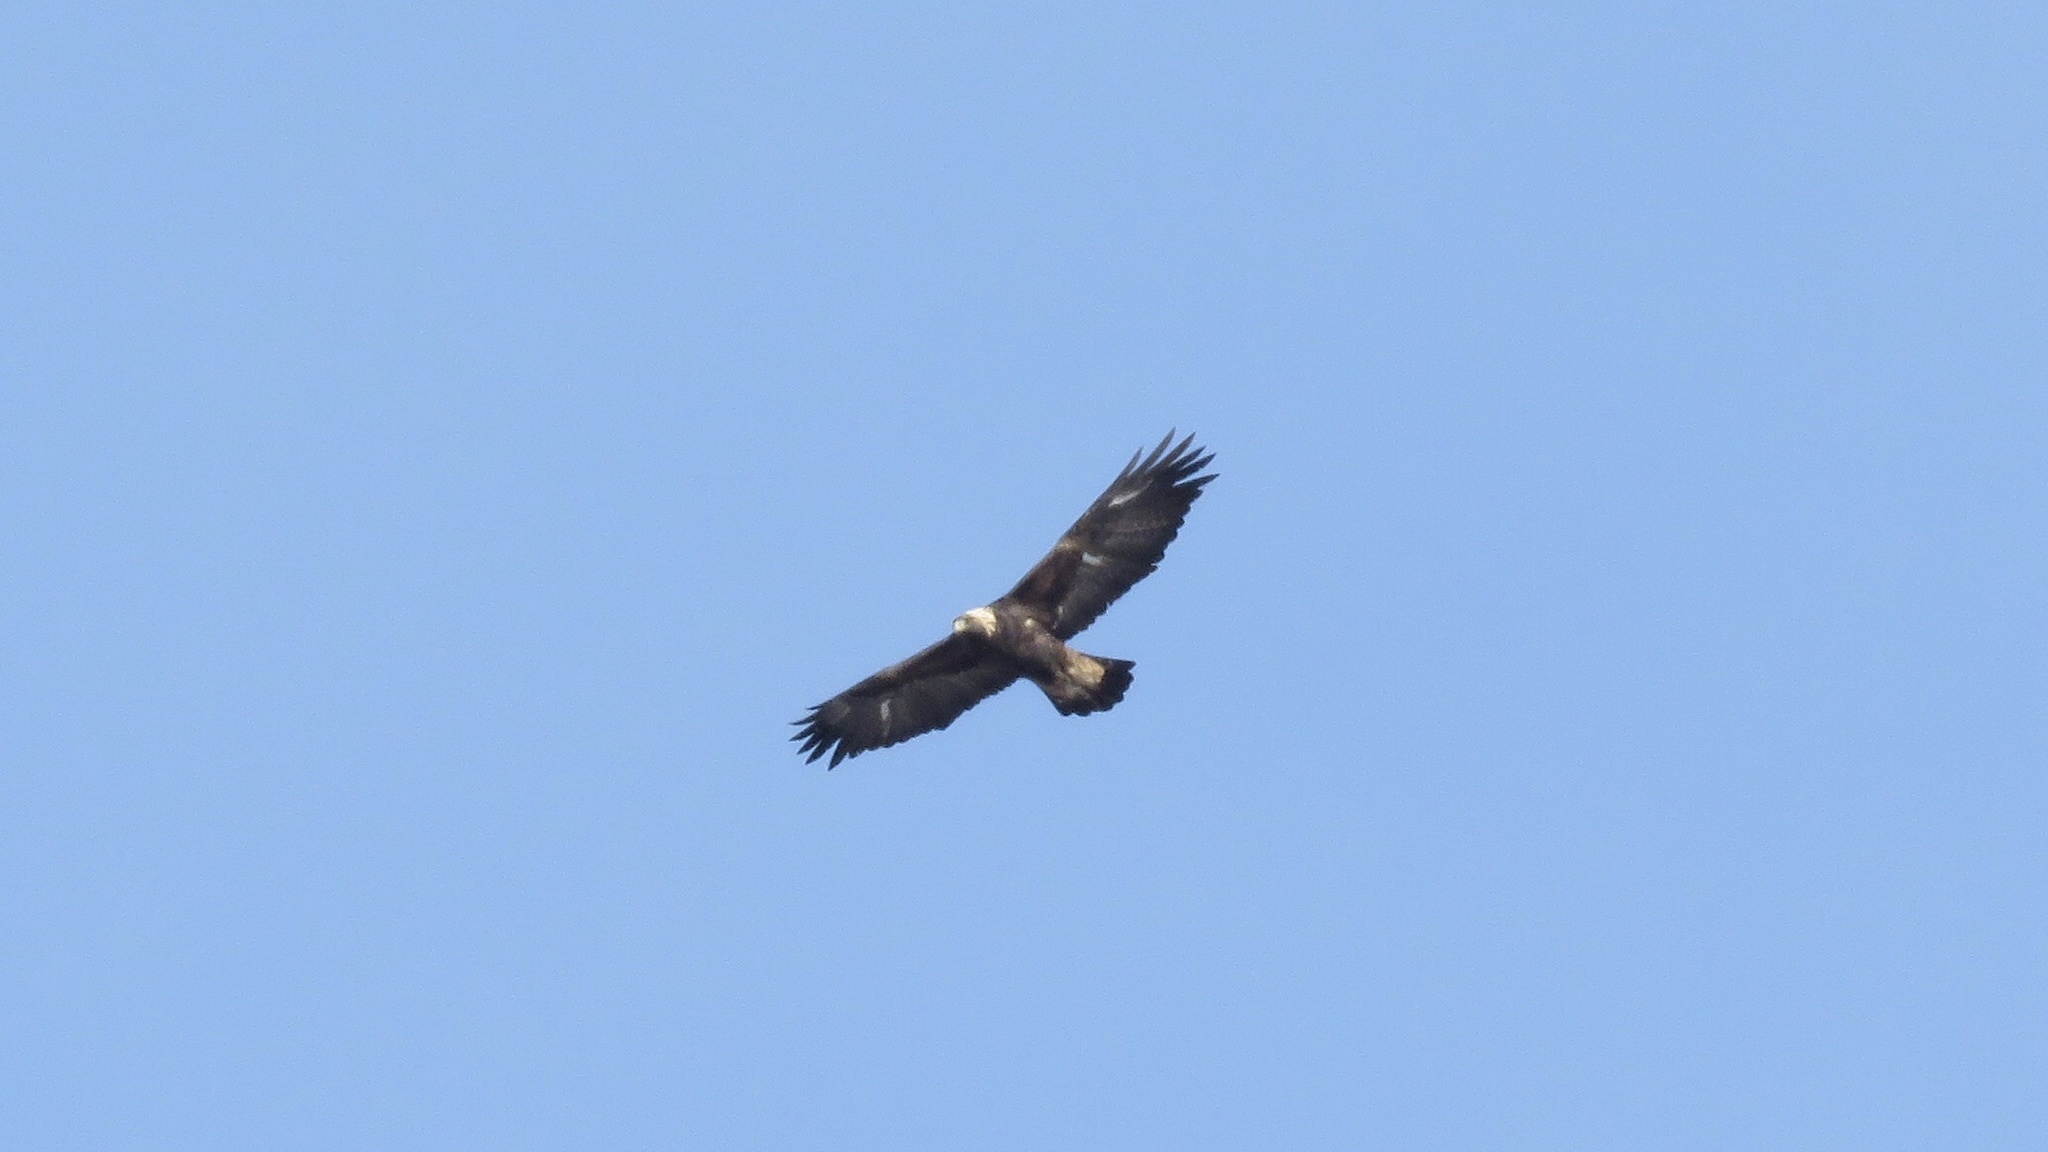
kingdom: Animalia
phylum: Chordata
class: Aves
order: Accipitriformes
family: Accipitridae
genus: Aquila
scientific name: Aquila chrysaetos
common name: Golden eagle
